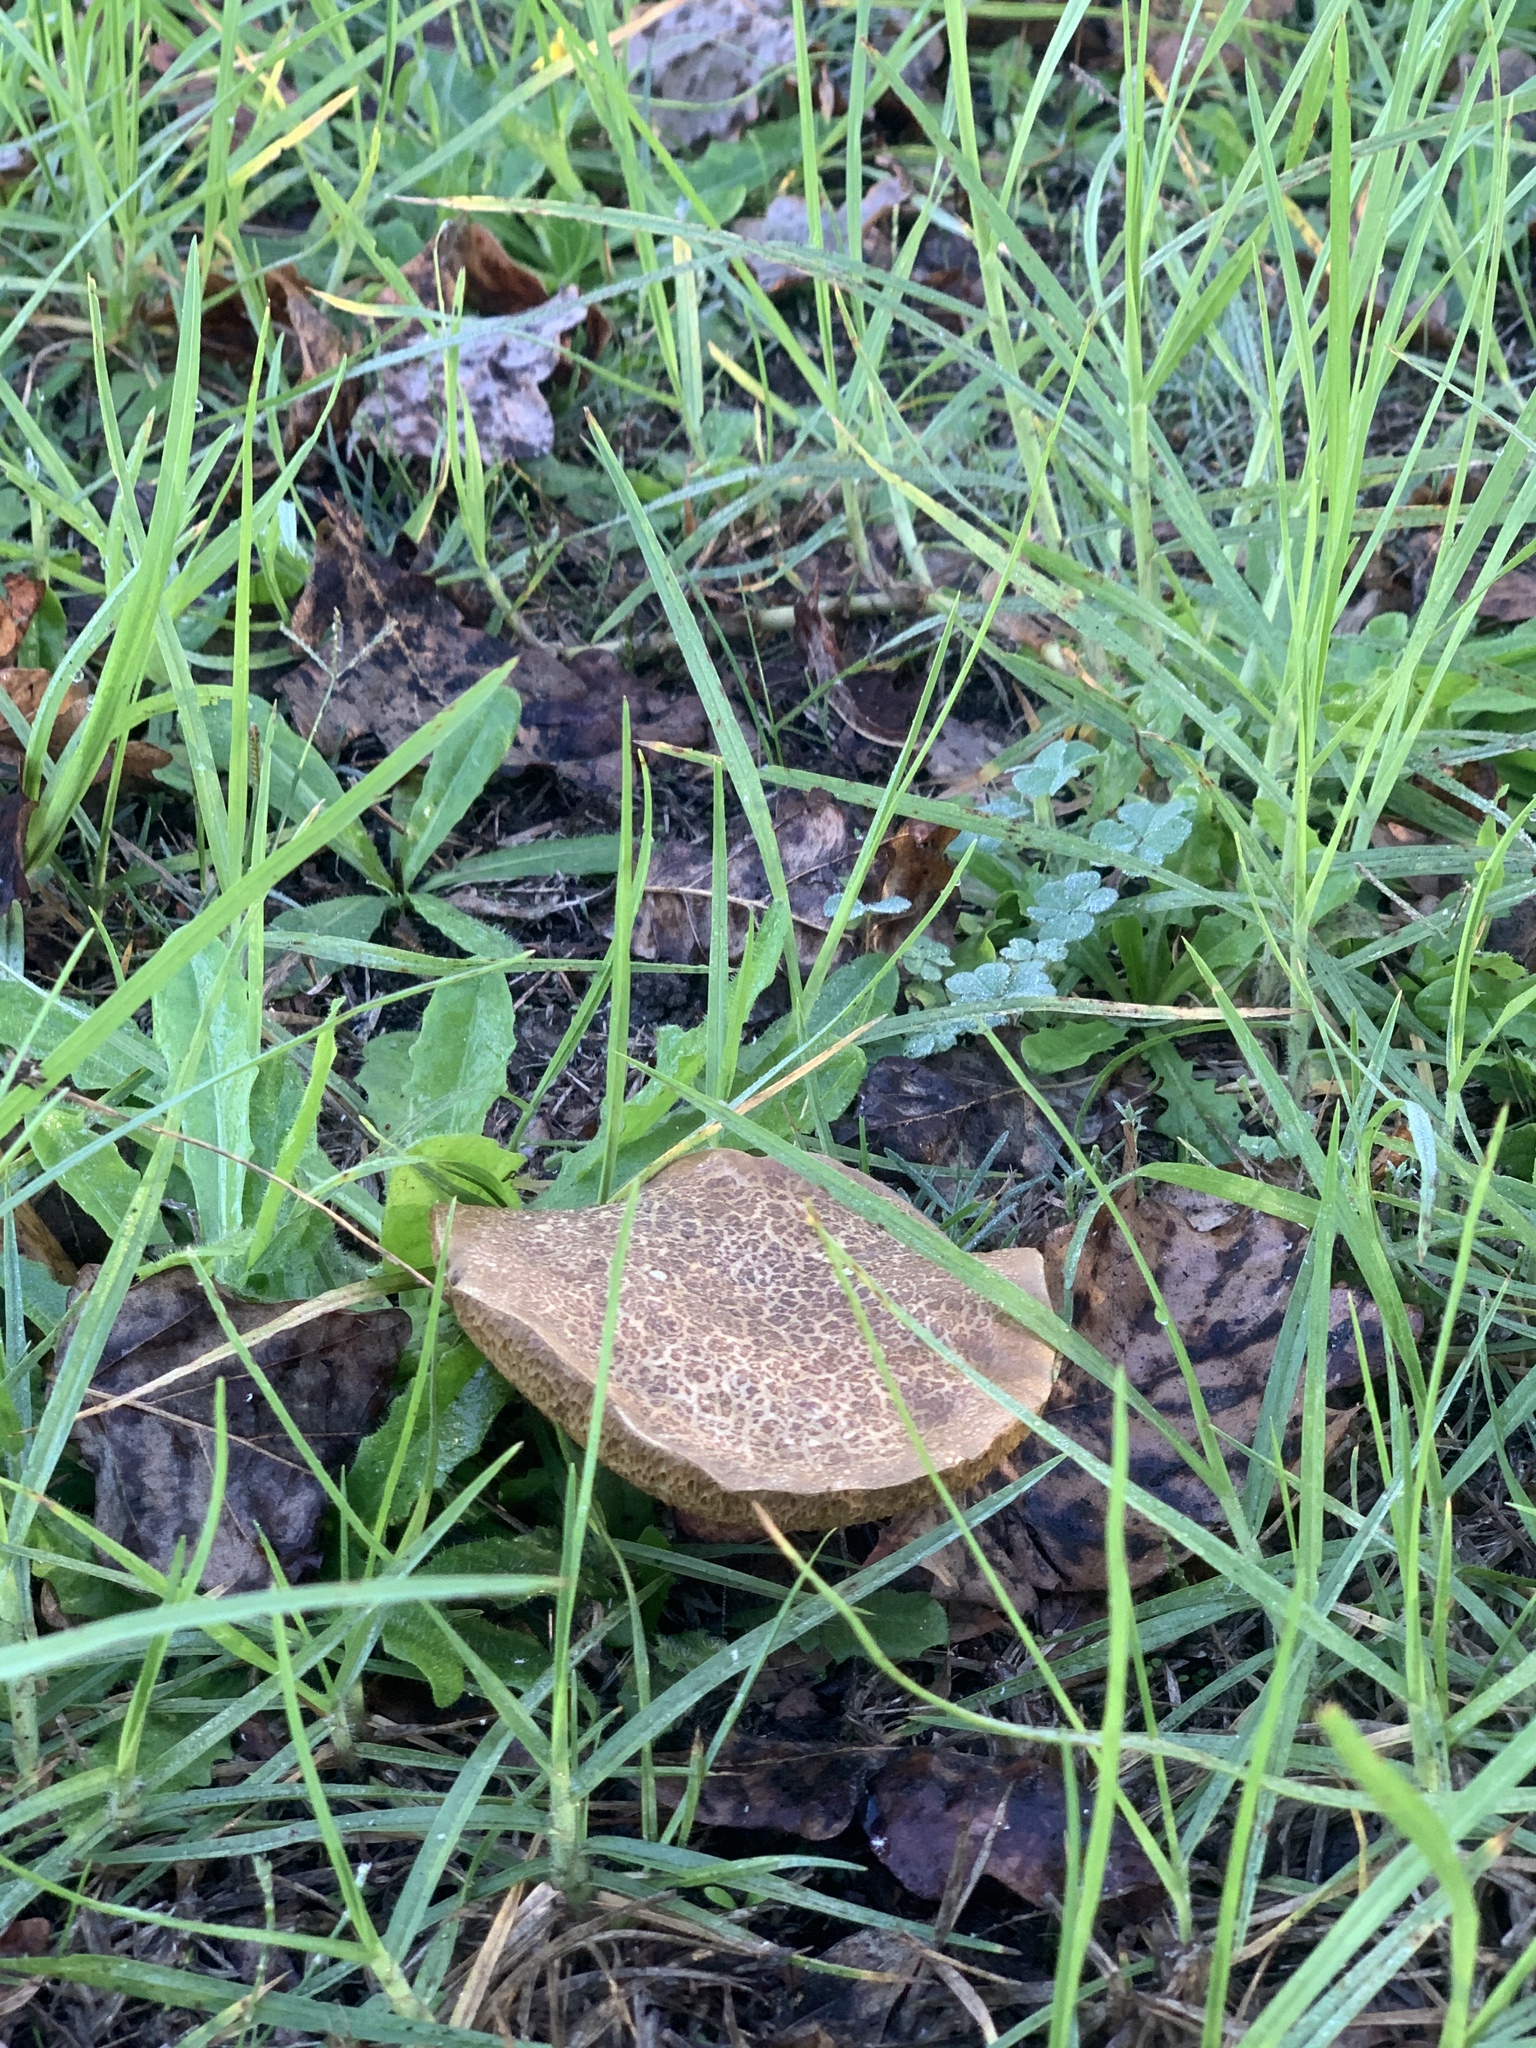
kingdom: Fungi
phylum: Basidiomycota
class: Agaricomycetes
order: Boletales
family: Boletaceae
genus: Xerocomellus
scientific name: Xerocomellus chrysenteron
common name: Red-cracking bolete
